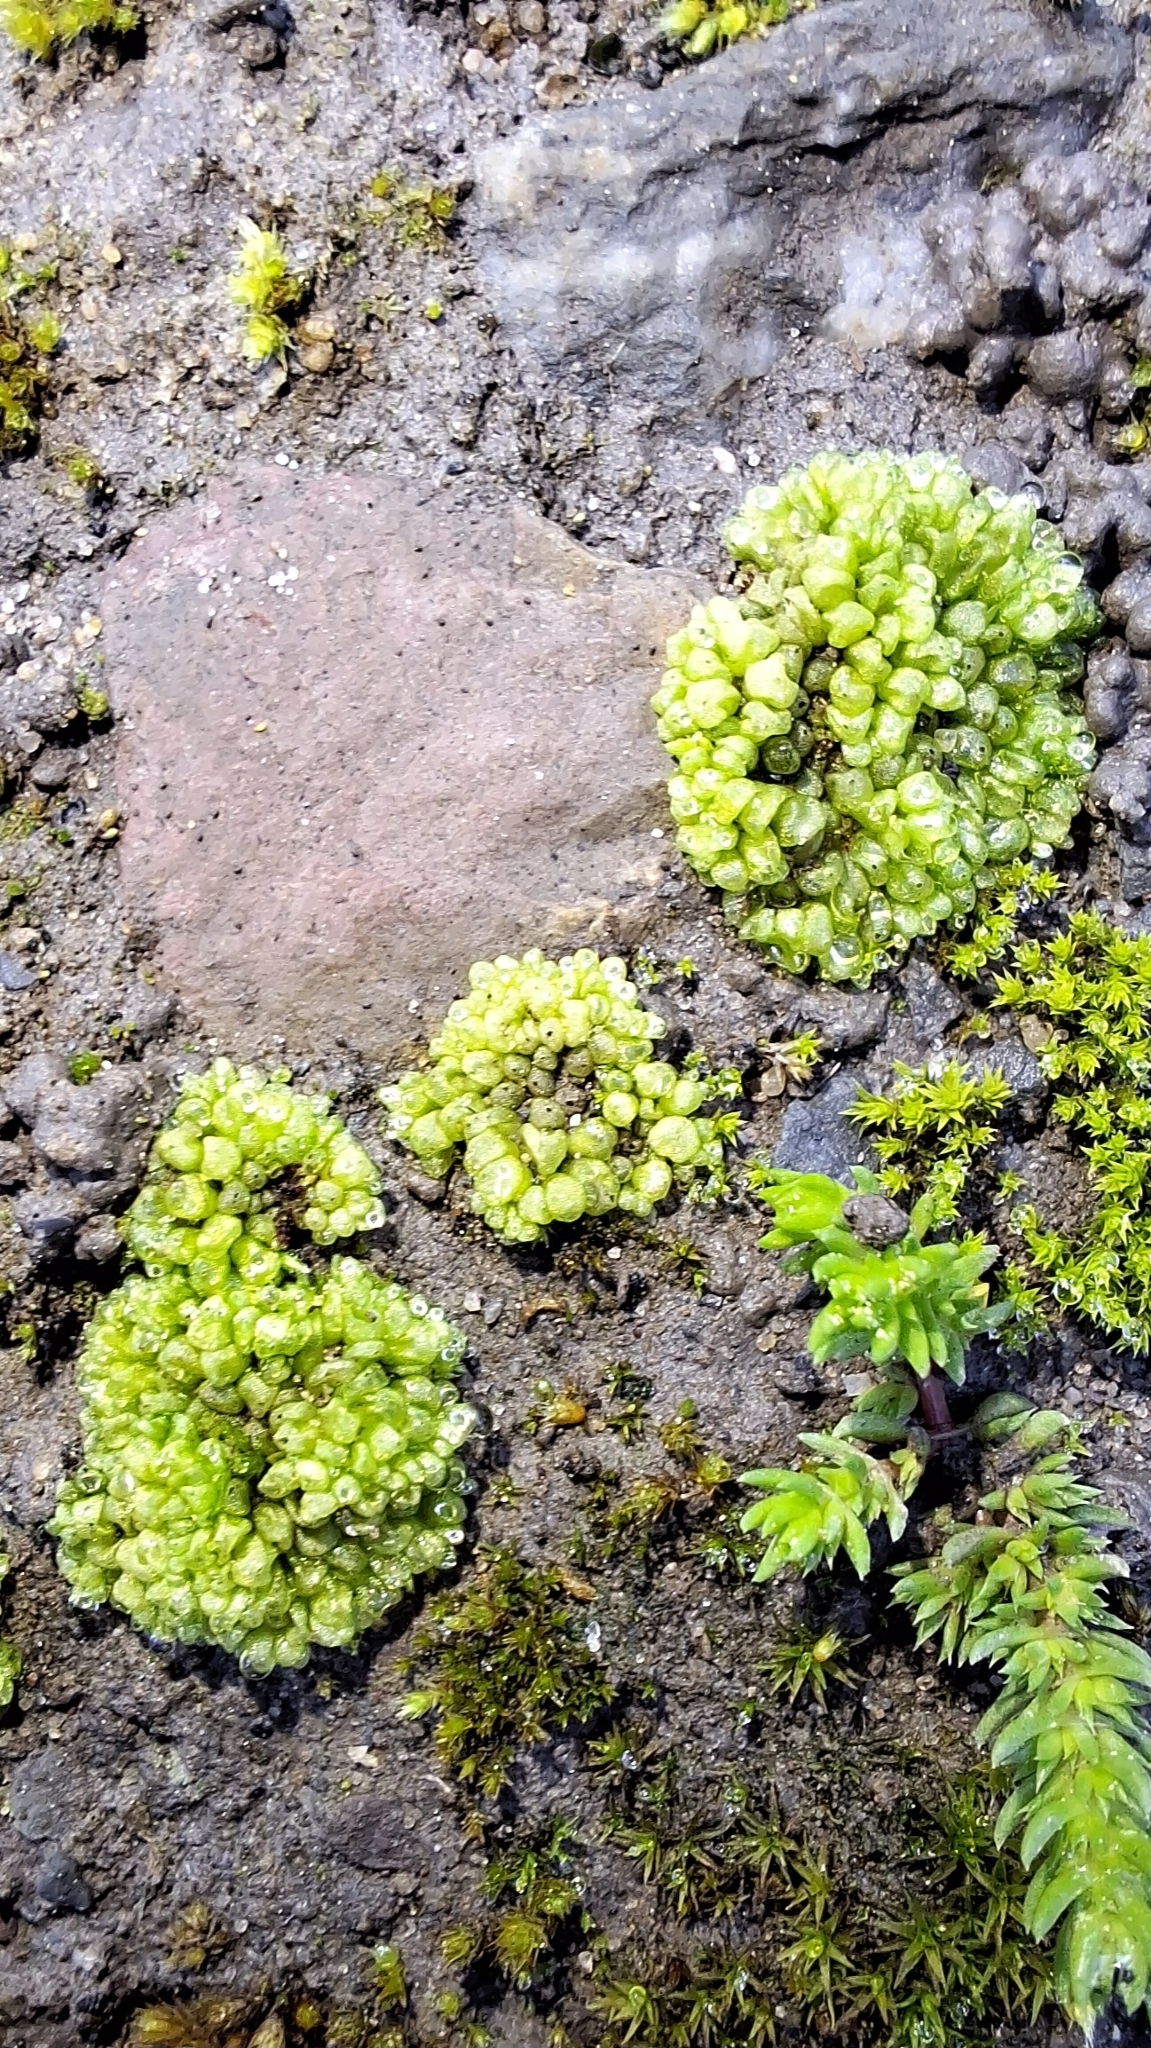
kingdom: Plantae
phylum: Marchantiophyta
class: Marchantiopsida
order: Sphaerocarpales
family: Sphaerocarpaceae
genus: Sphaerocarpos
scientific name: Sphaerocarpos texanus
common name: Texas balloonwort
